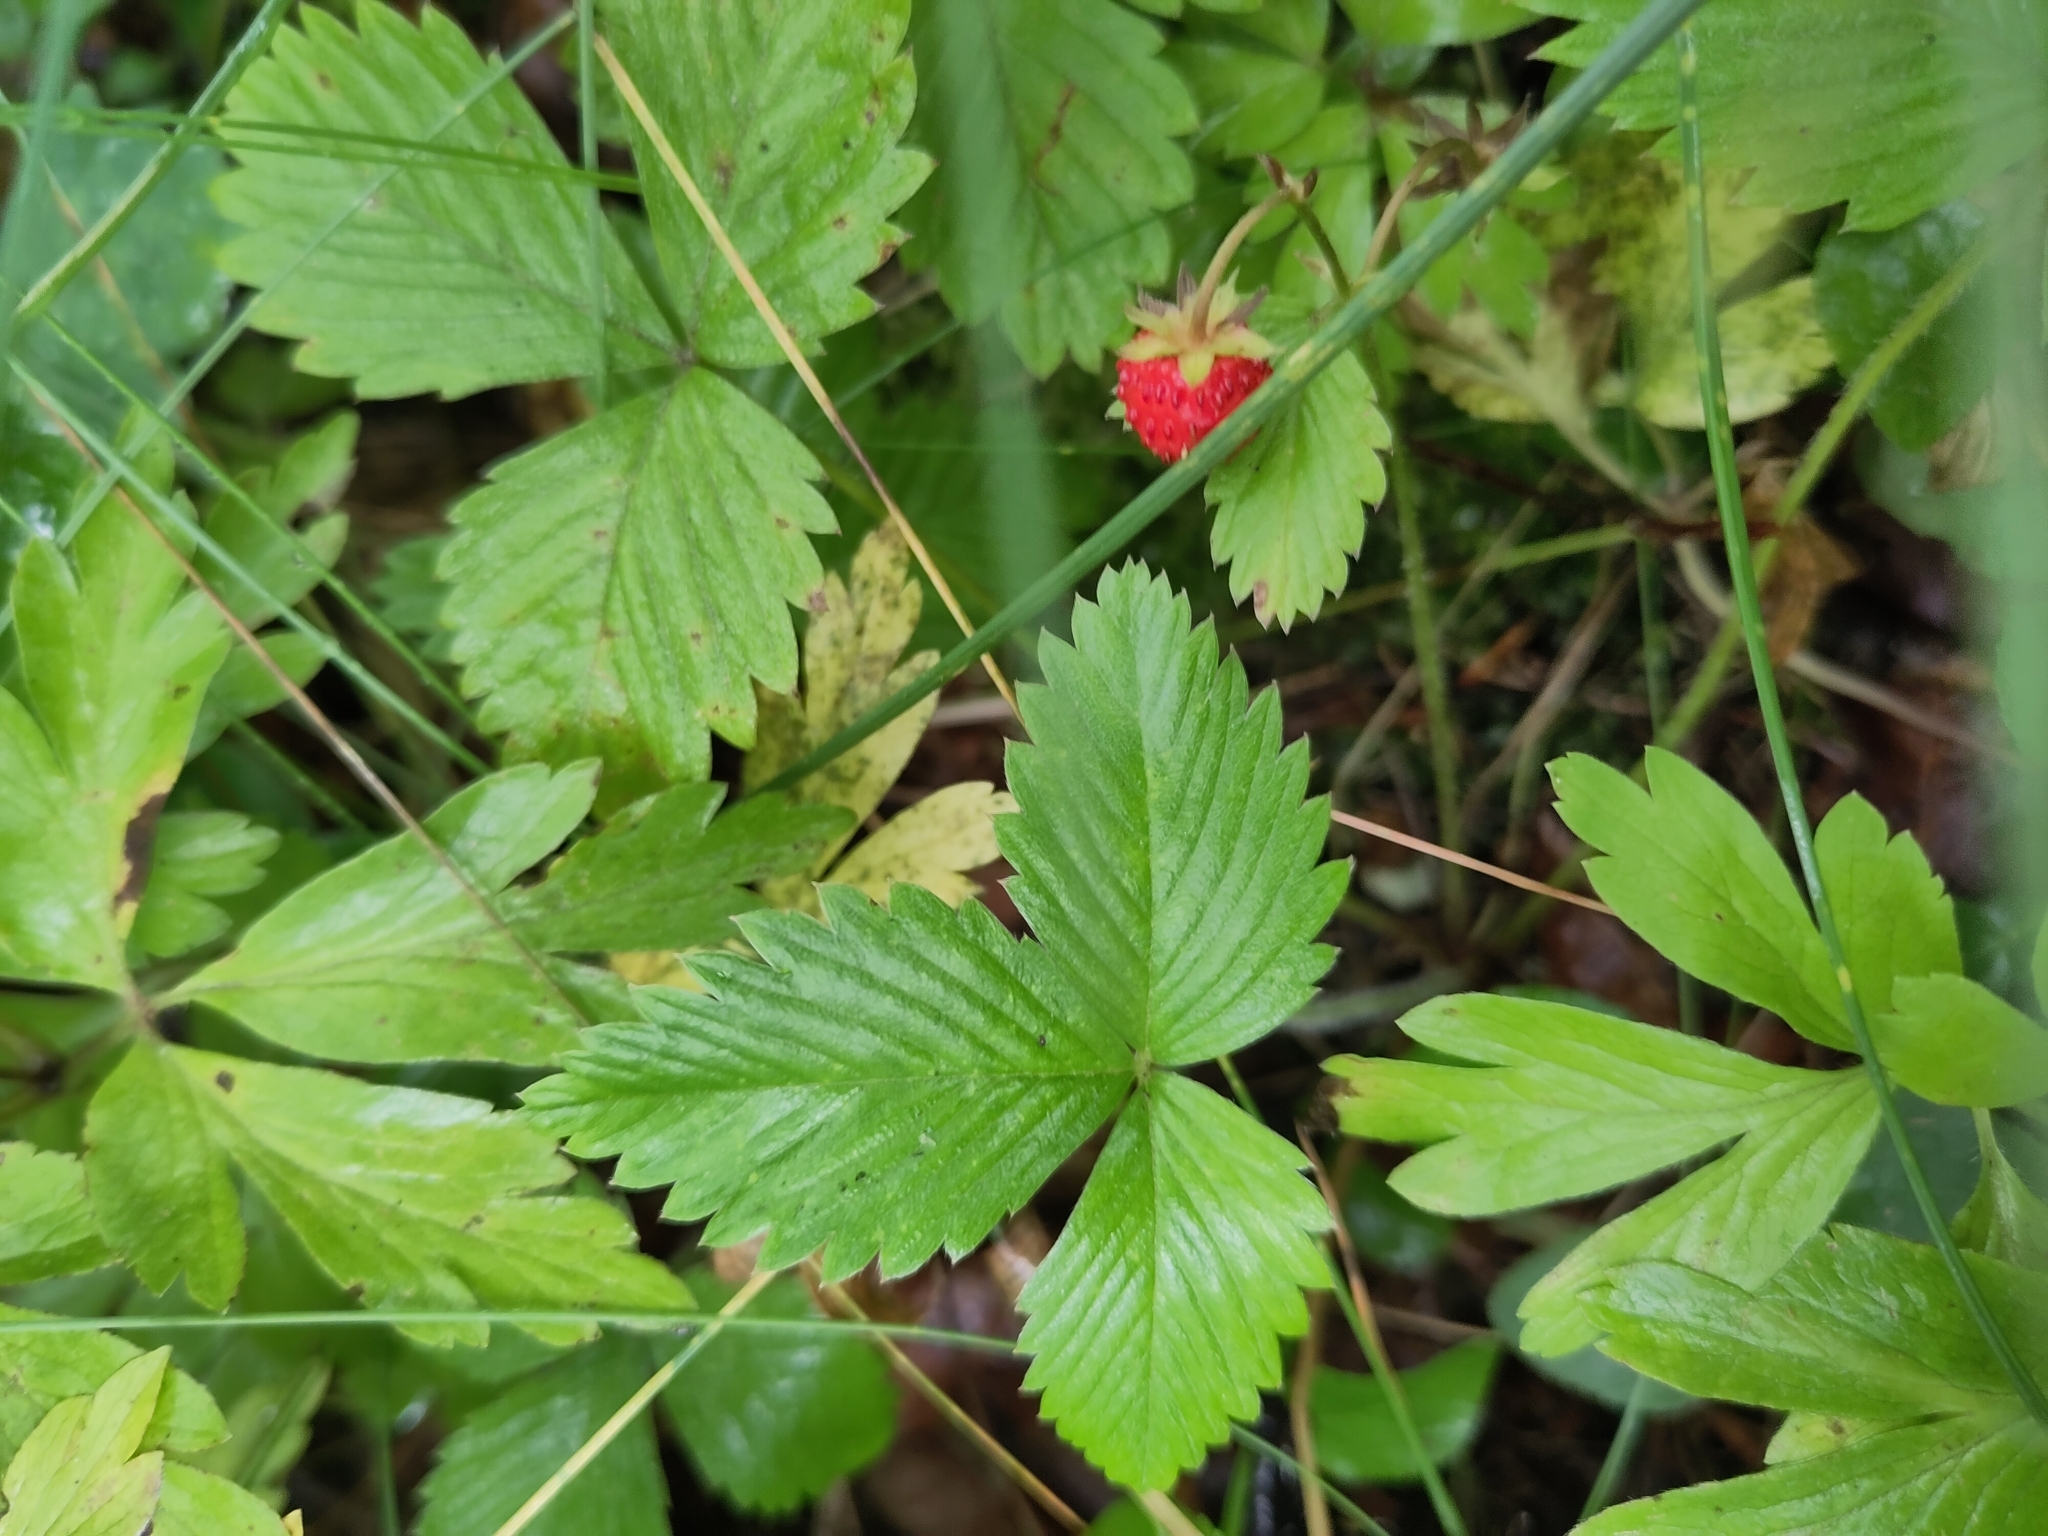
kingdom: Plantae
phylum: Tracheophyta
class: Magnoliopsida
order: Rosales
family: Rosaceae
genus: Fragaria
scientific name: Fragaria vesca
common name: Wild strawberry
